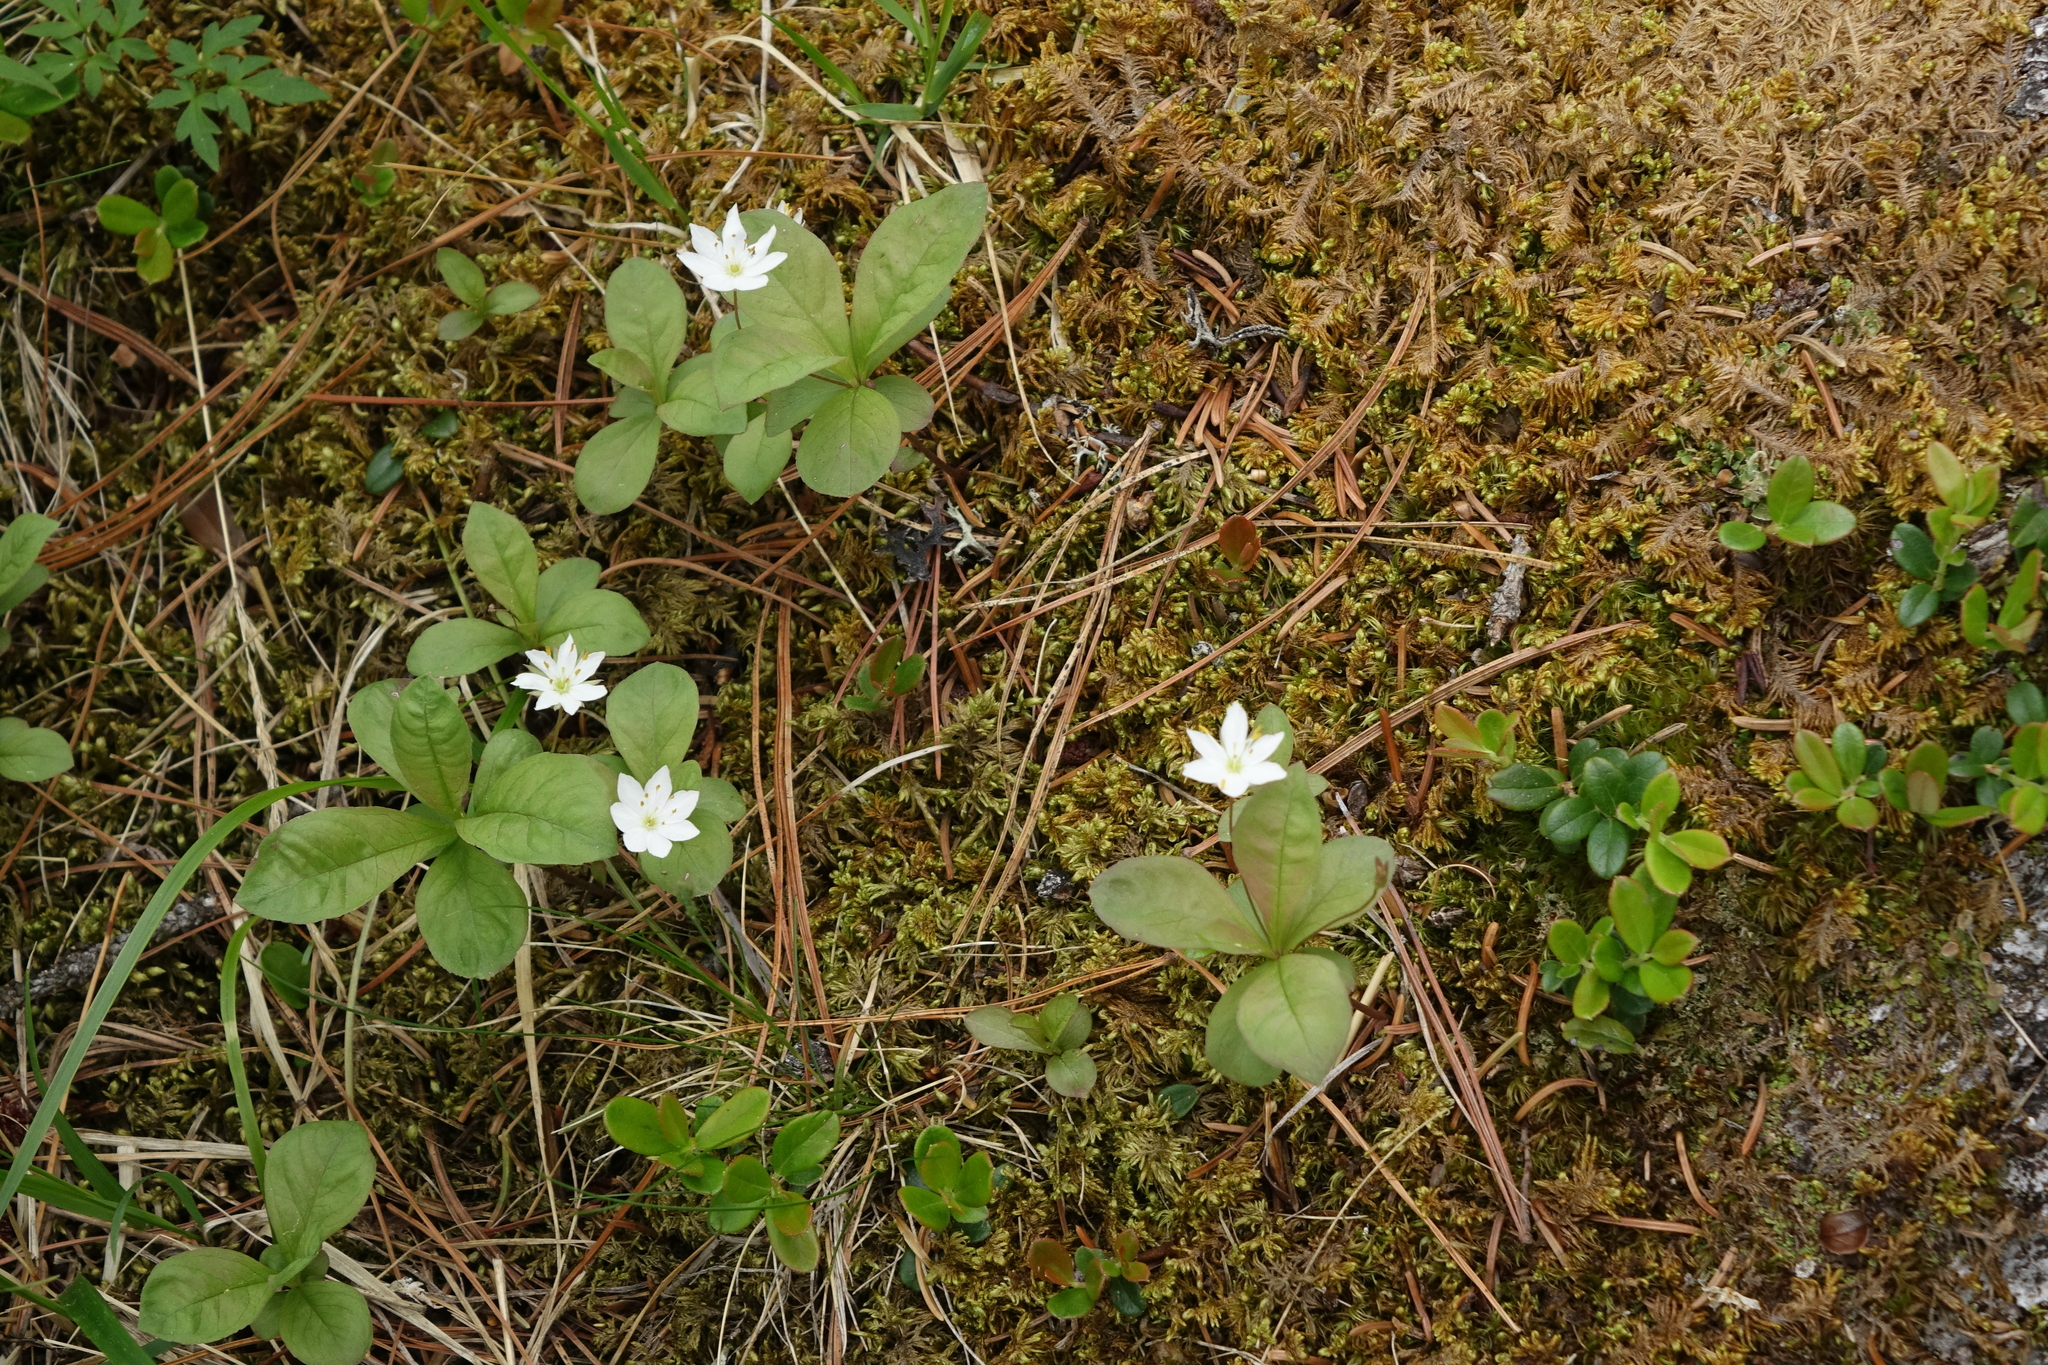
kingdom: Plantae
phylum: Tracheophyta
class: Magnoliopsida
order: Ericales
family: Primulaceae
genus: Lysimachia
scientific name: Lysimachia europaea
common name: Arctic starflower
